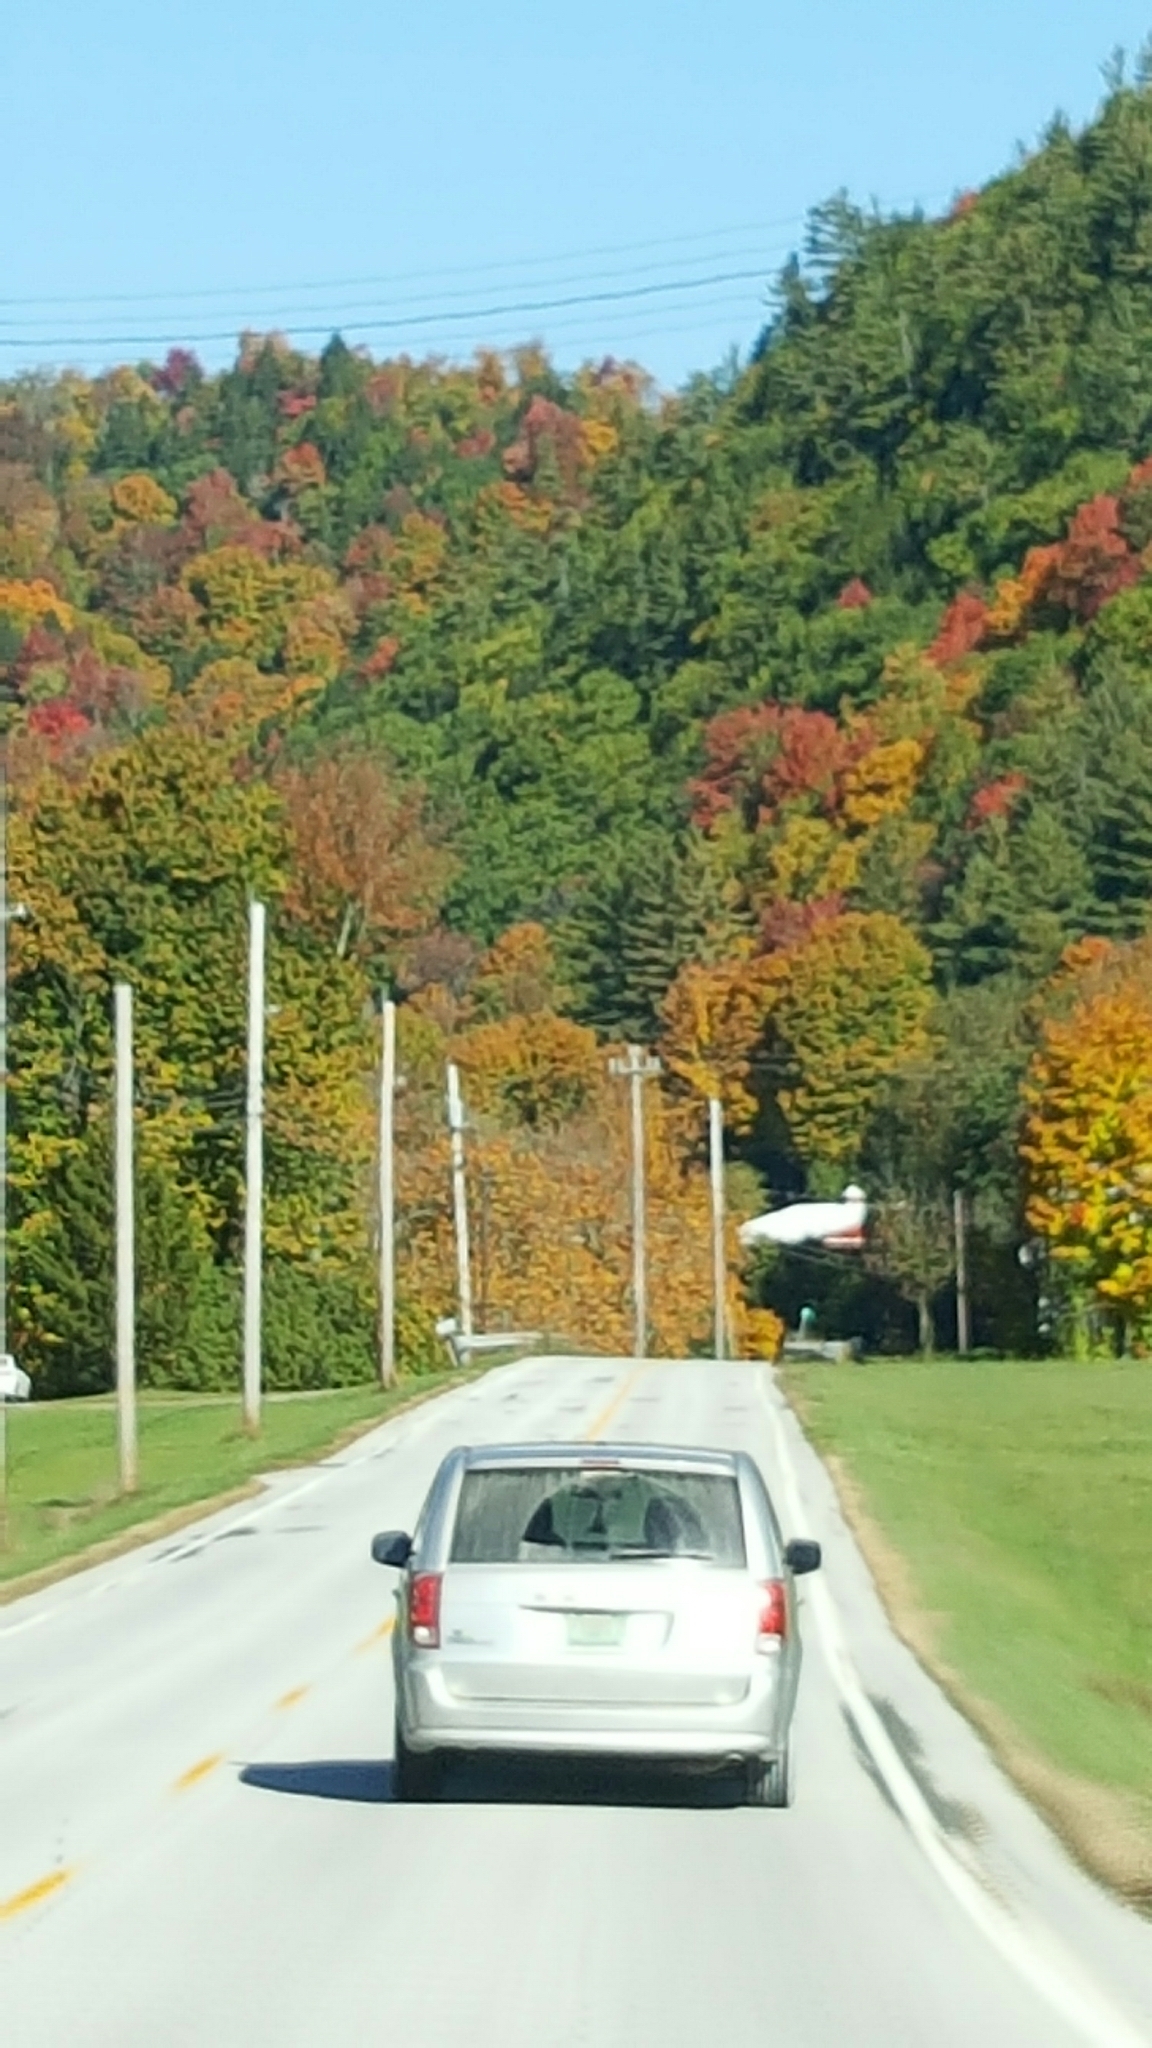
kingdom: Plantae
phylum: Tracheophyta
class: Magnoliopsida
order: Fagales
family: Fagaceae
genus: Quercus
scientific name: Quercus rubra
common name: Red oak
